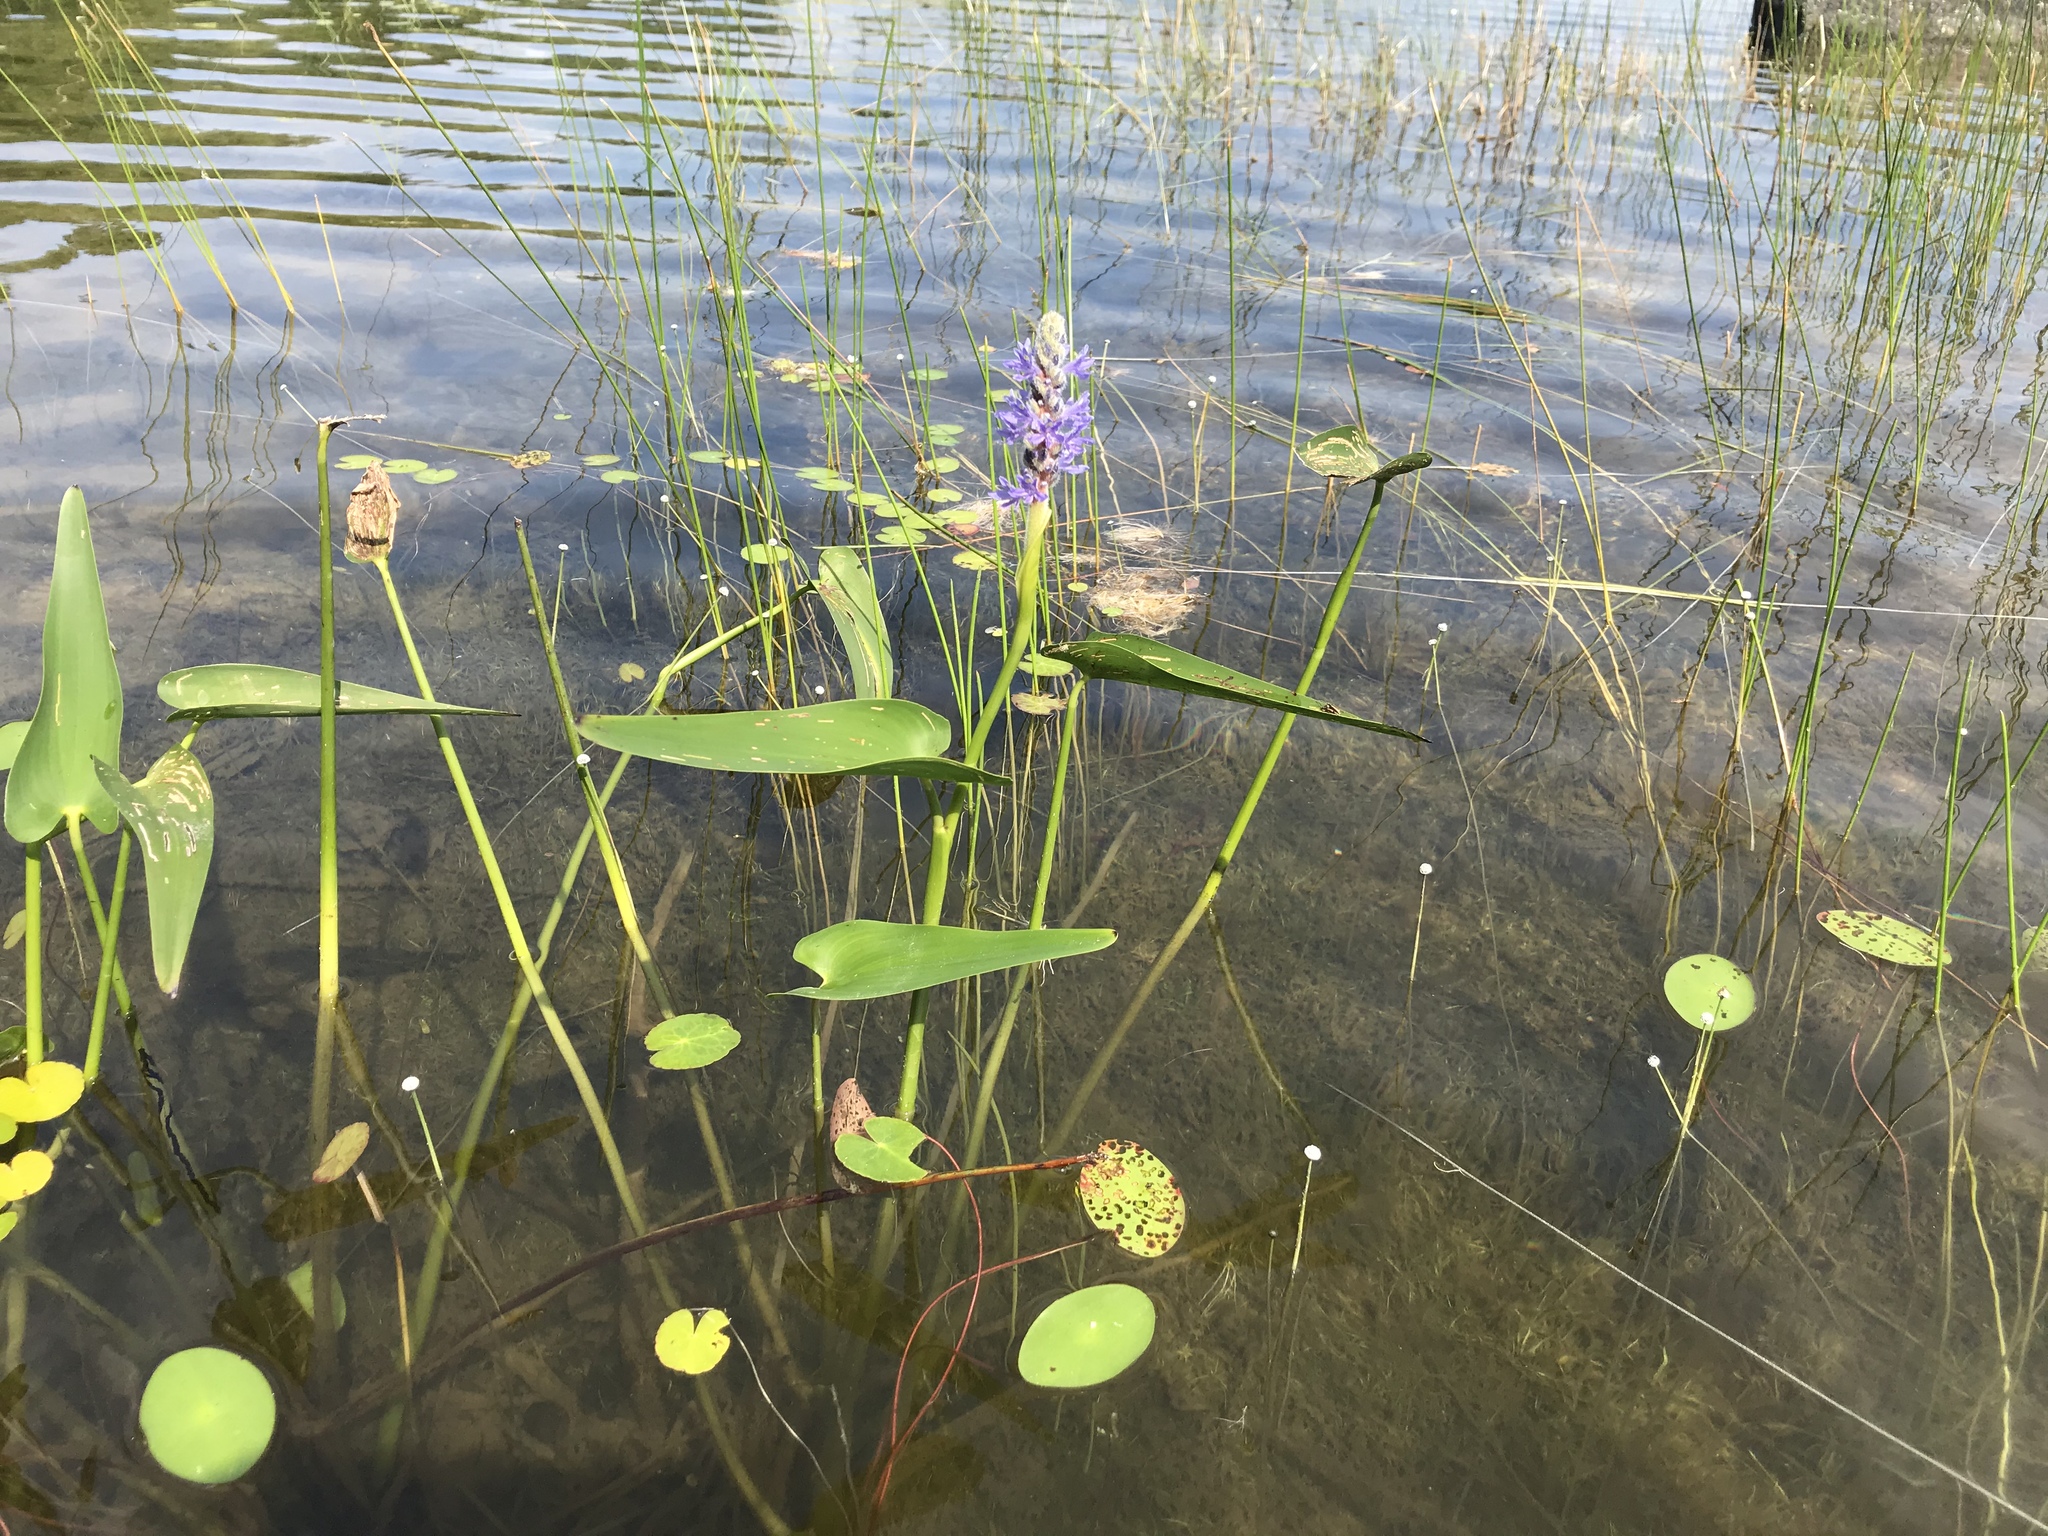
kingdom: Plantae
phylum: Tracheophyta
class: Liliopsida
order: Commelinales
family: Pontederiaceae
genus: Pontederia
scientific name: Pontederia cordata
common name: Pickerelweed
